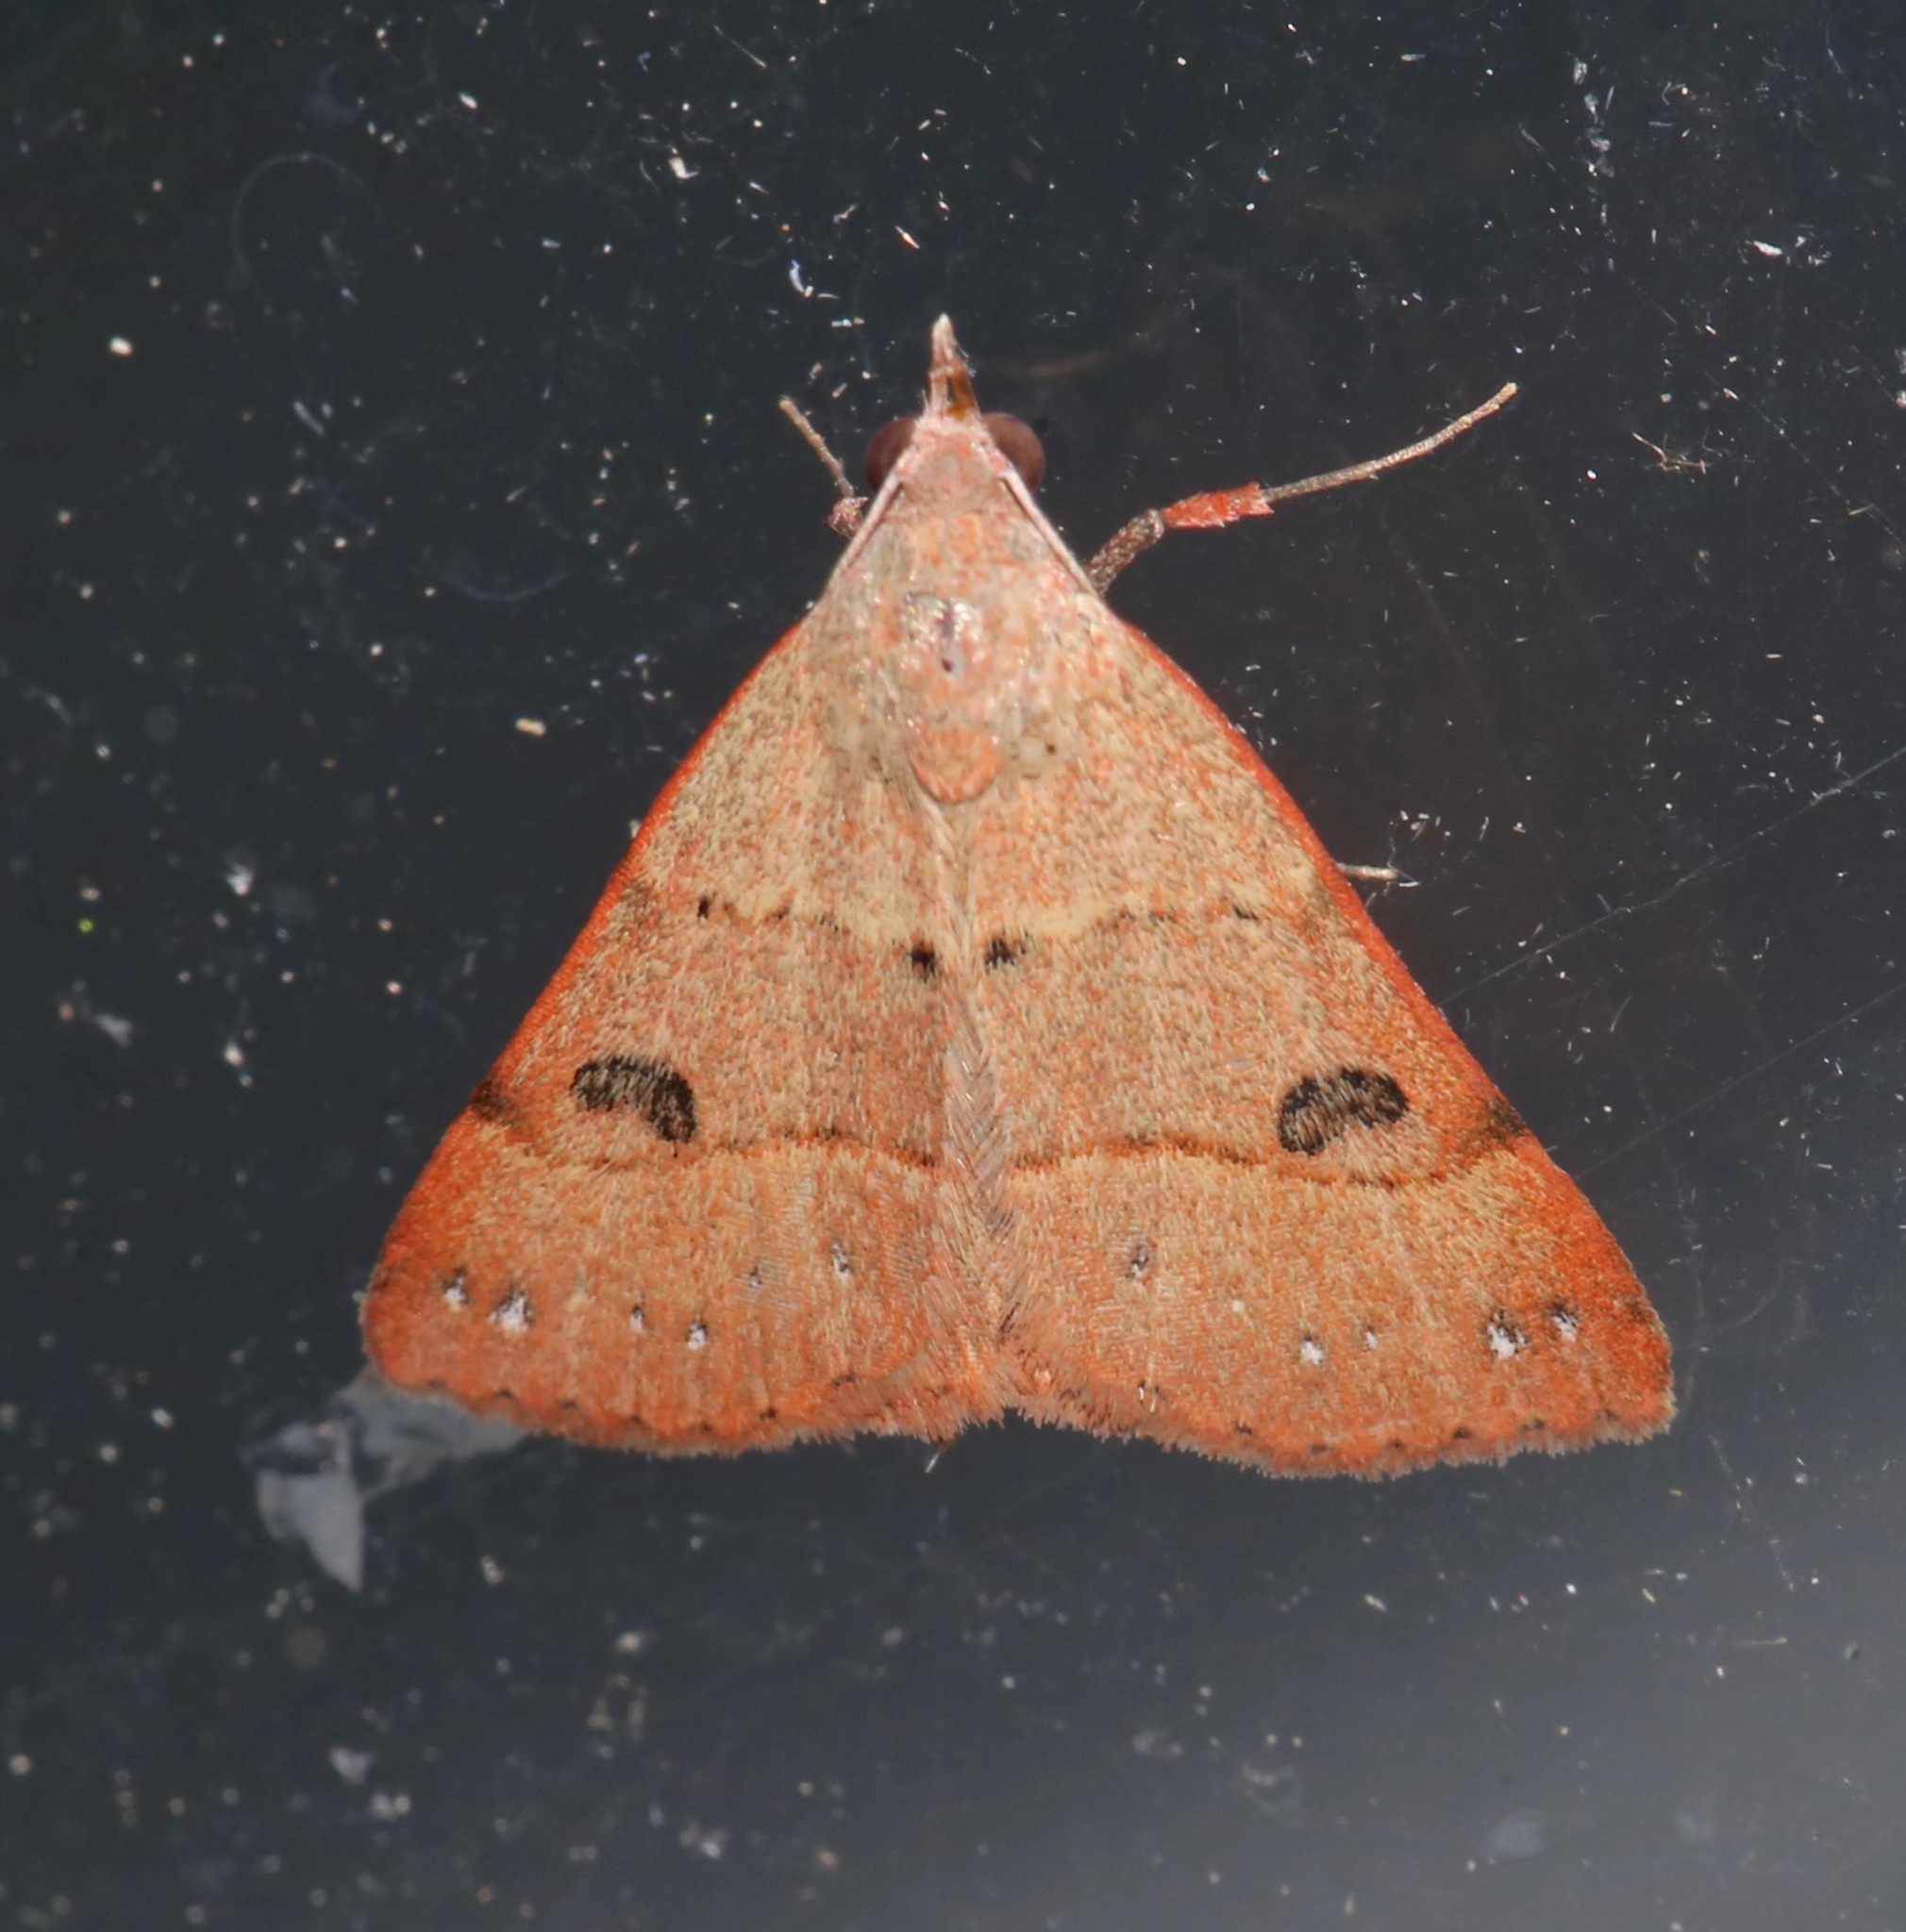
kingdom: Animalia
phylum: Arthropoda
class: Insecta
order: Lepidoptera
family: Erebidae
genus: Hemeroplanis
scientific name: Hemeroplanis habitalis
